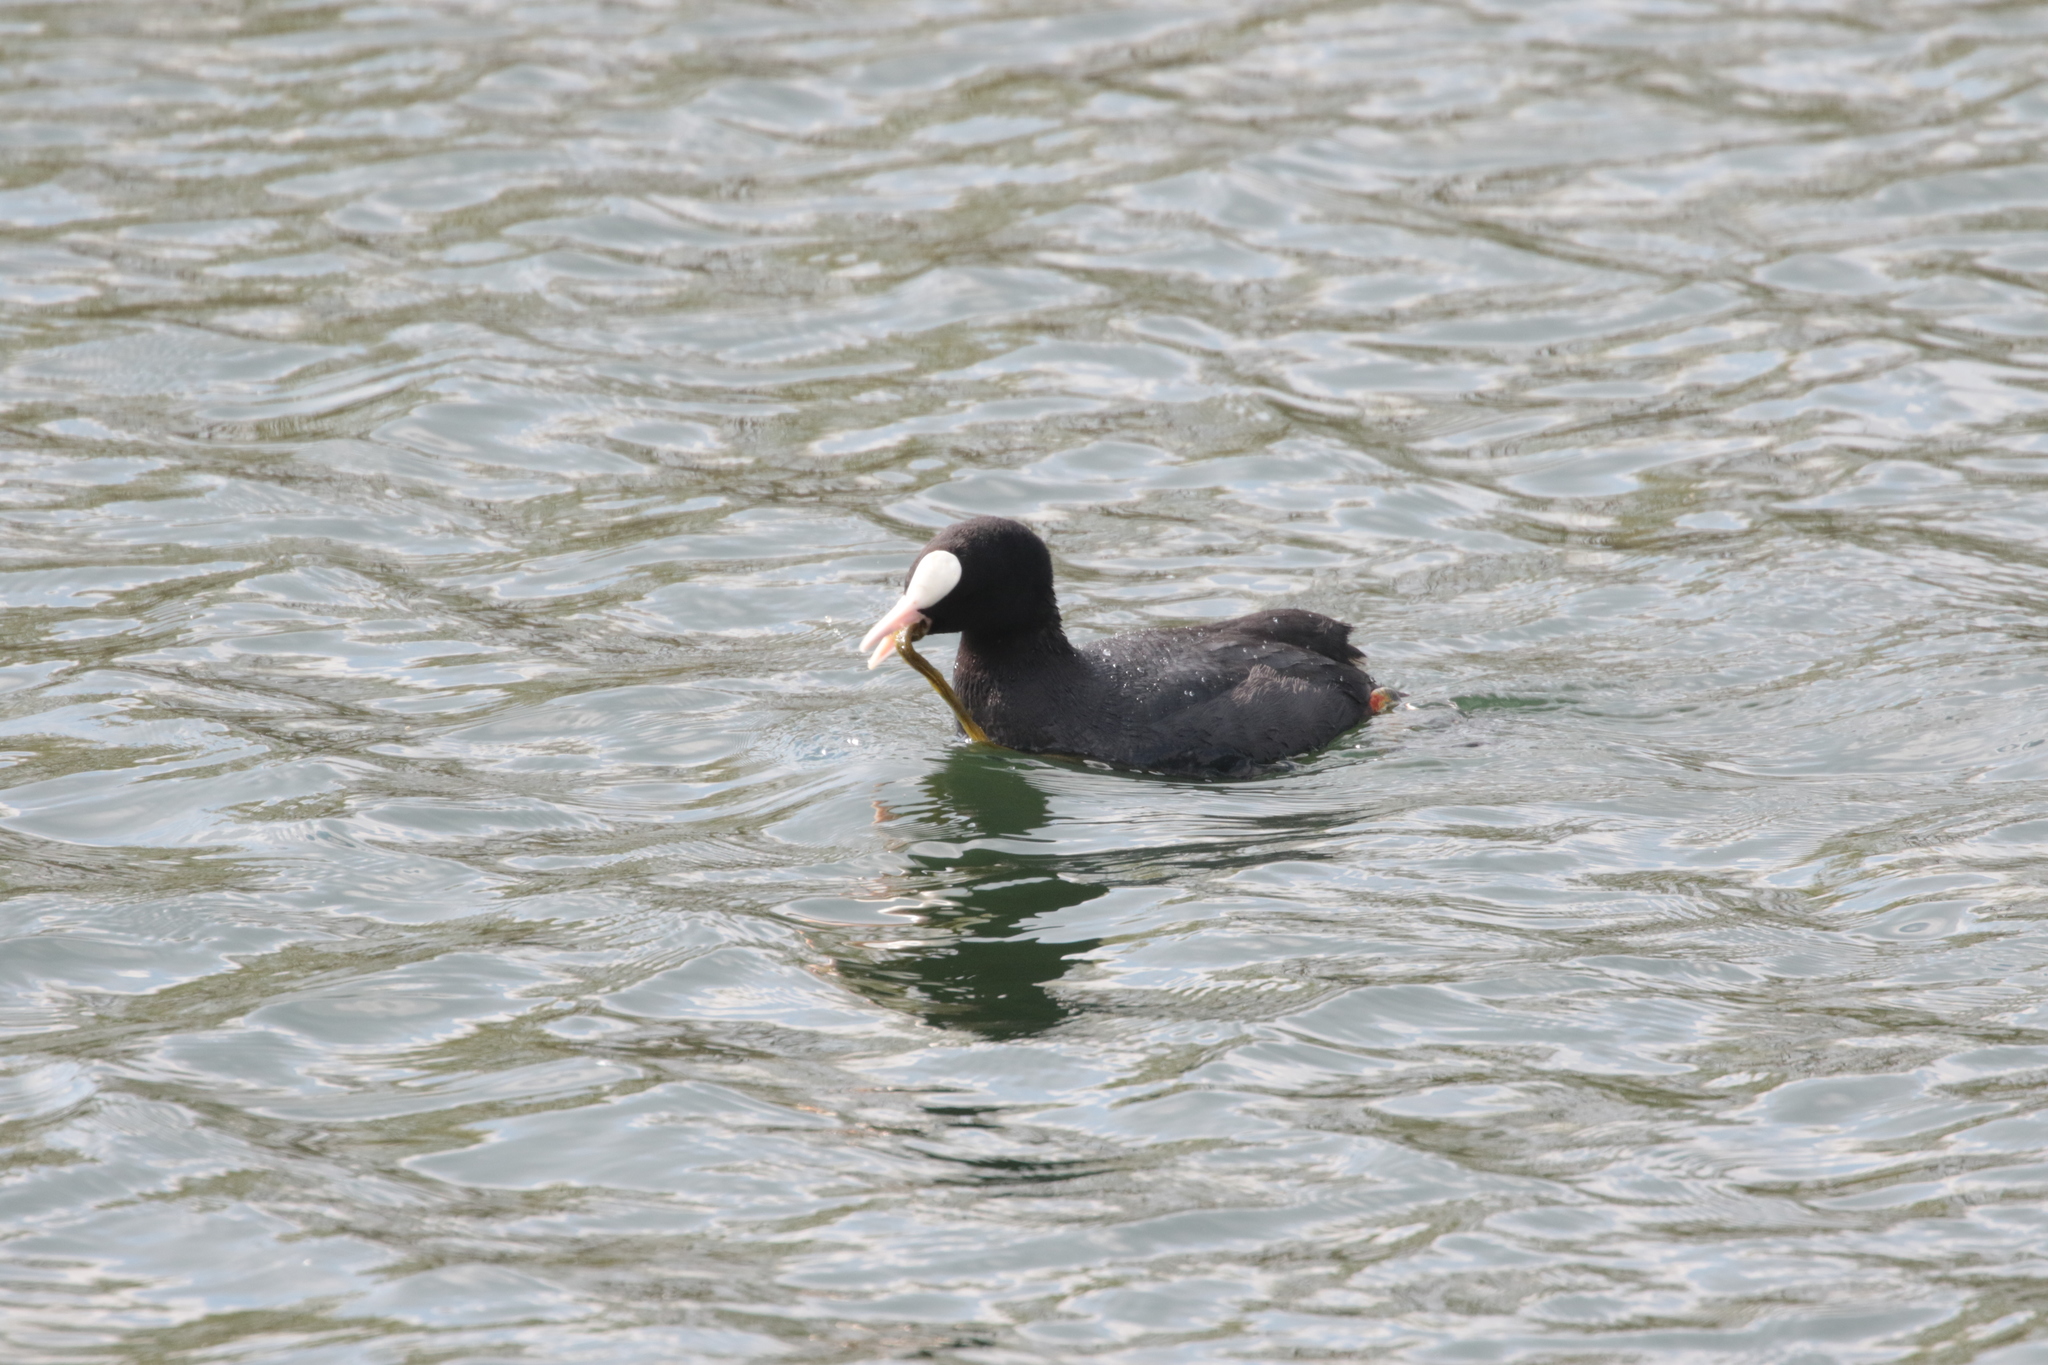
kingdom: Animalia
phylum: Chordata
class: Aves
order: Gruiformes
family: Rallidae
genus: Fulica
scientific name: Fulica atra
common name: Eurasian coot
